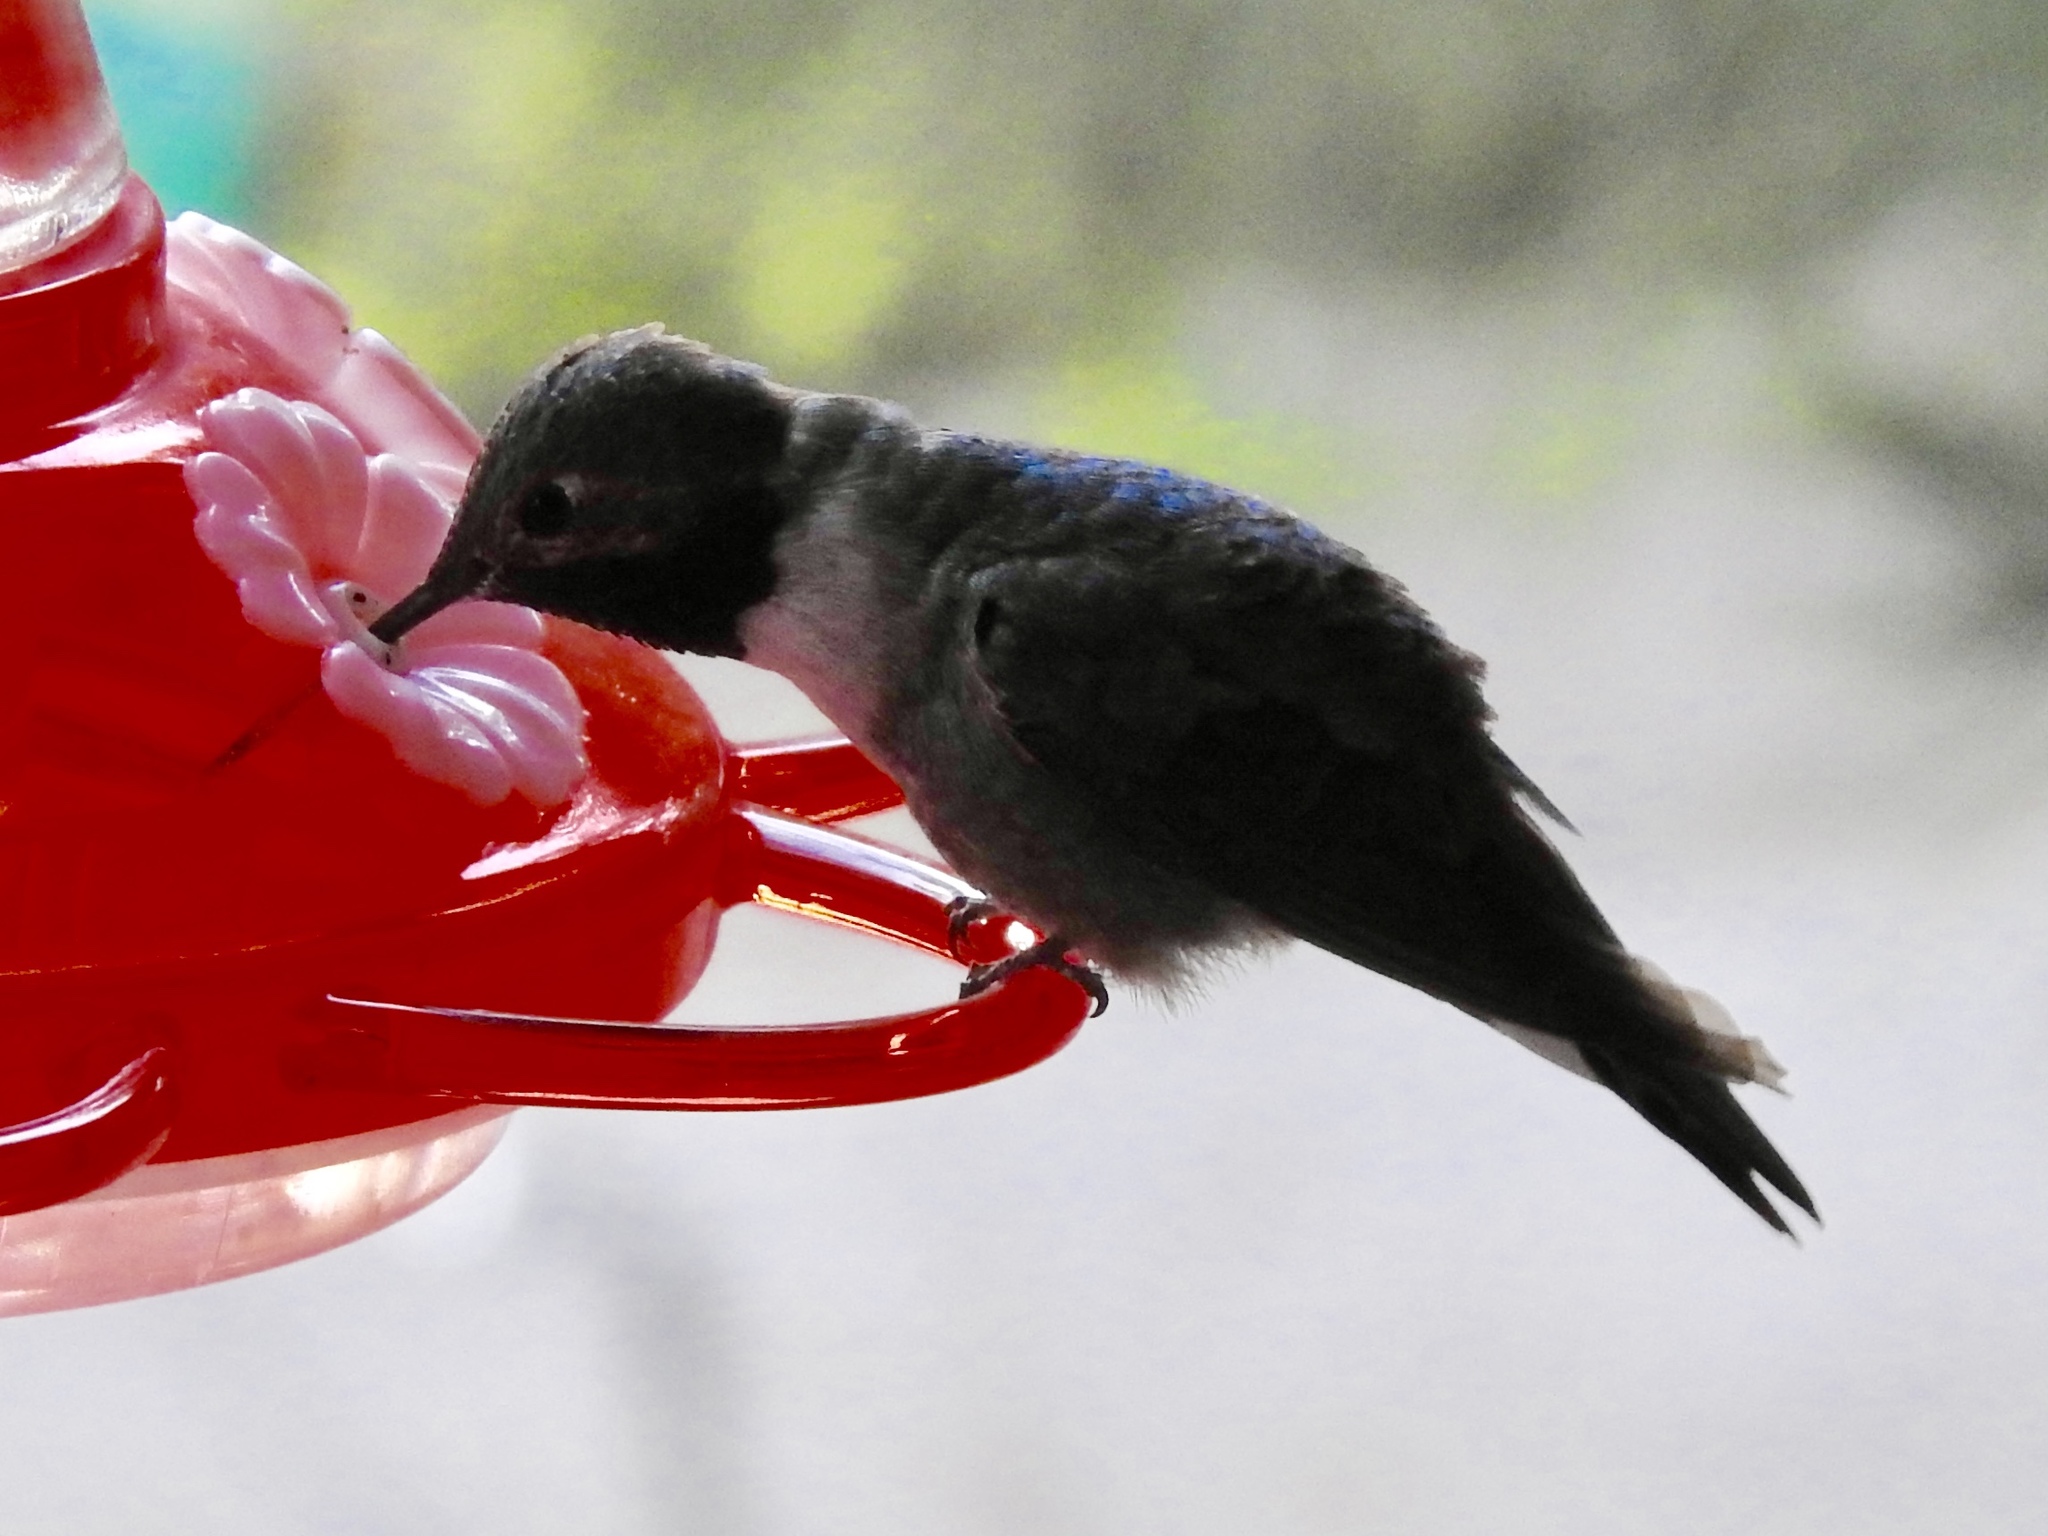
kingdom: Animalia
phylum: Chordata
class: Aves
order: Apodiformes
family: Trochilidae
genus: Selasphorus
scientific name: Selasphorus platycercus
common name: Broad-tailed hummingbird
